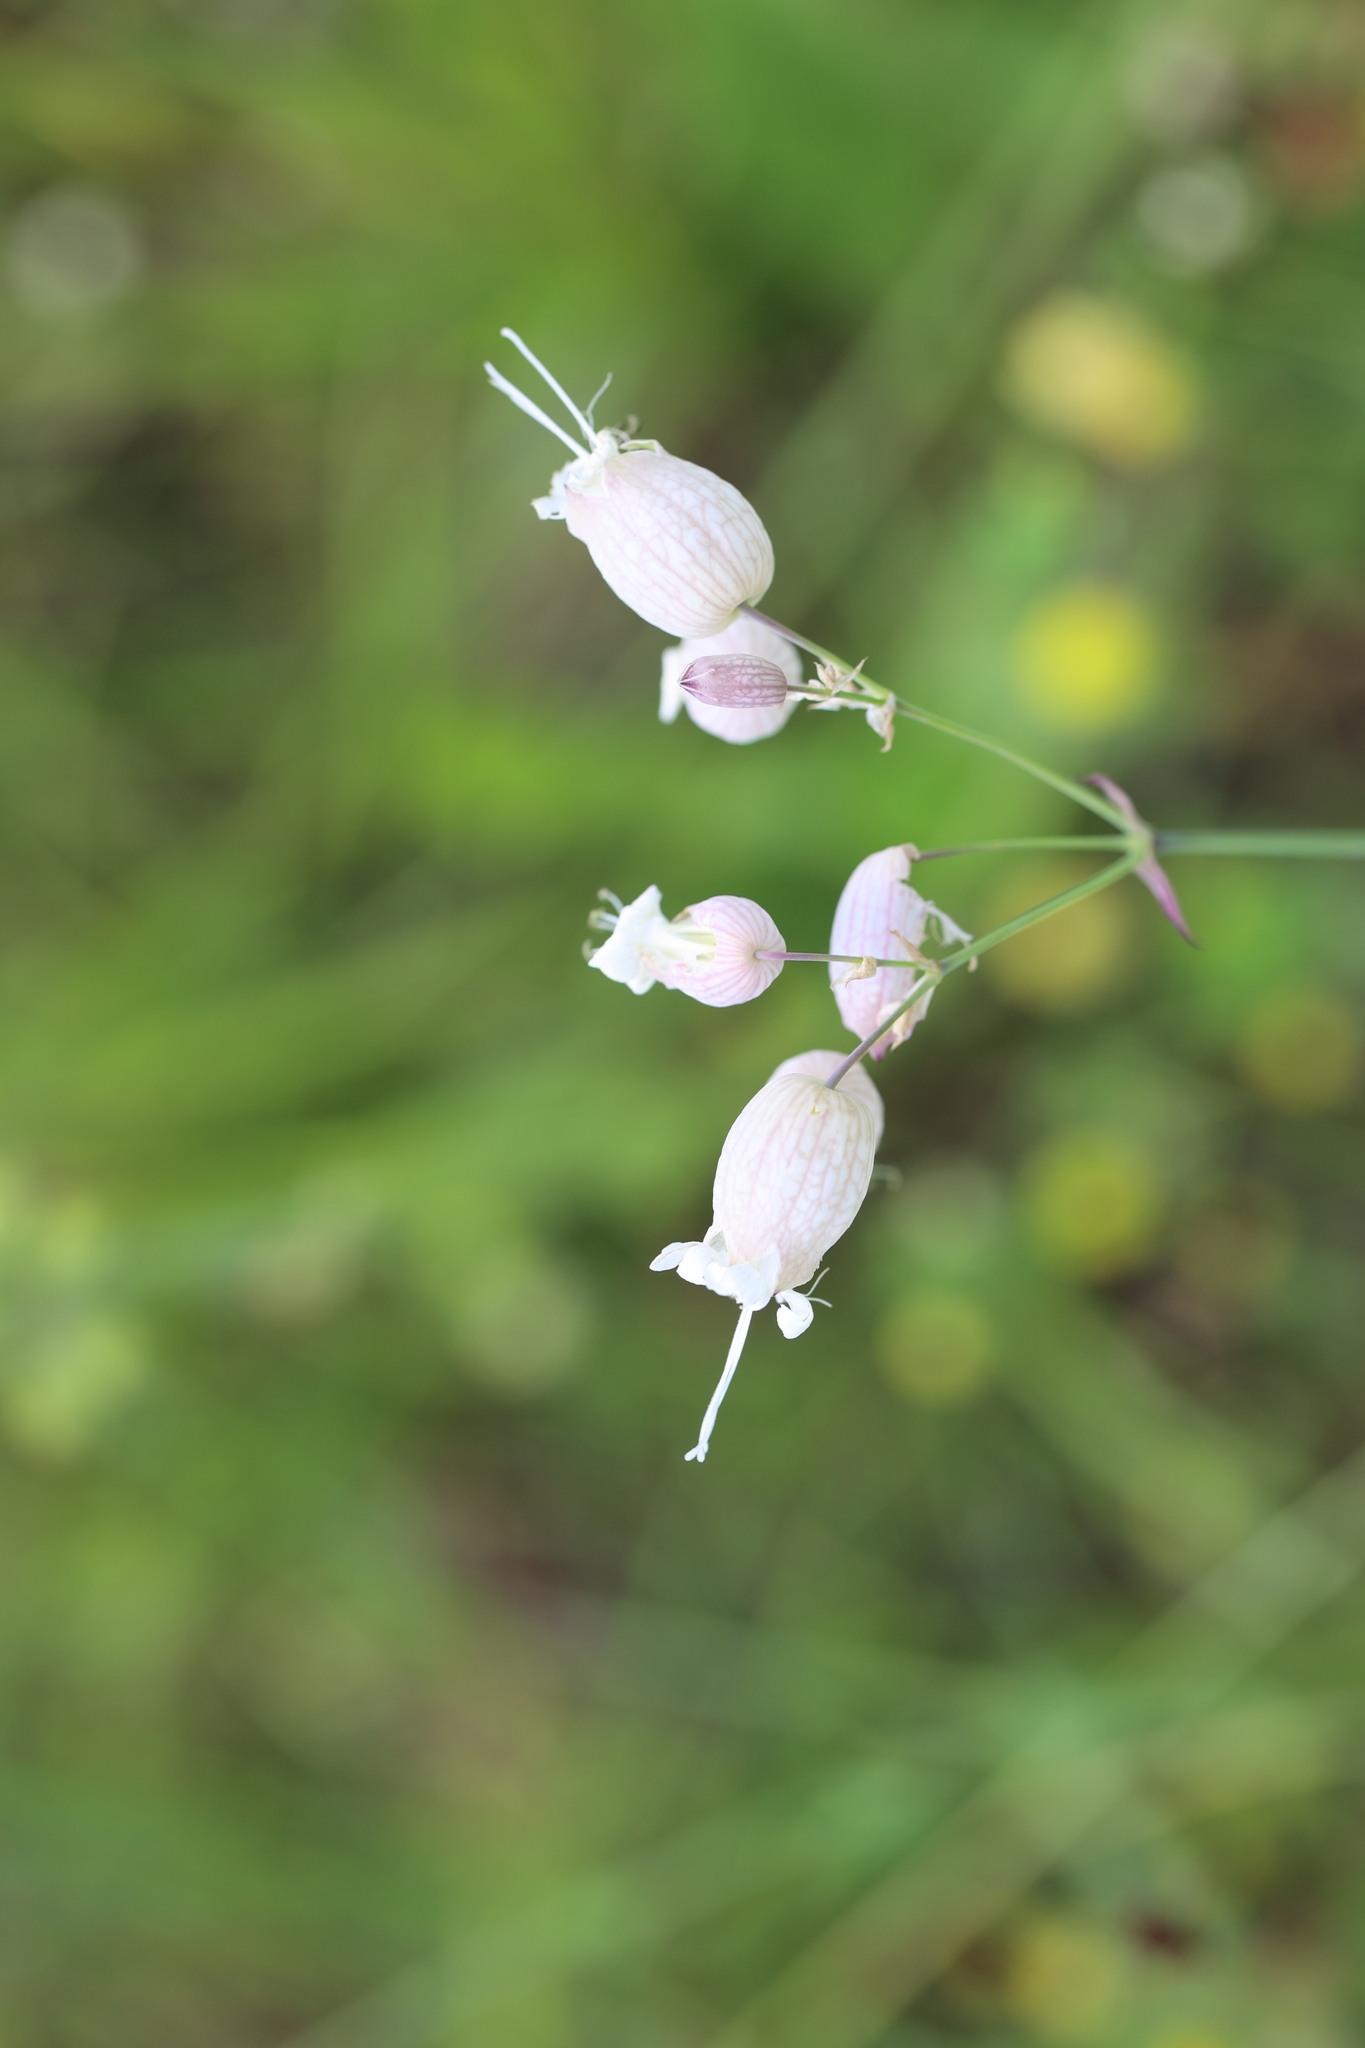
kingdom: Plantae
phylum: Tracheophyta
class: Magnoliopsida
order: Caryophyllales
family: Caryophyllaceae
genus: Silene
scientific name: Silene vulgaris
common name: Bladder campion
